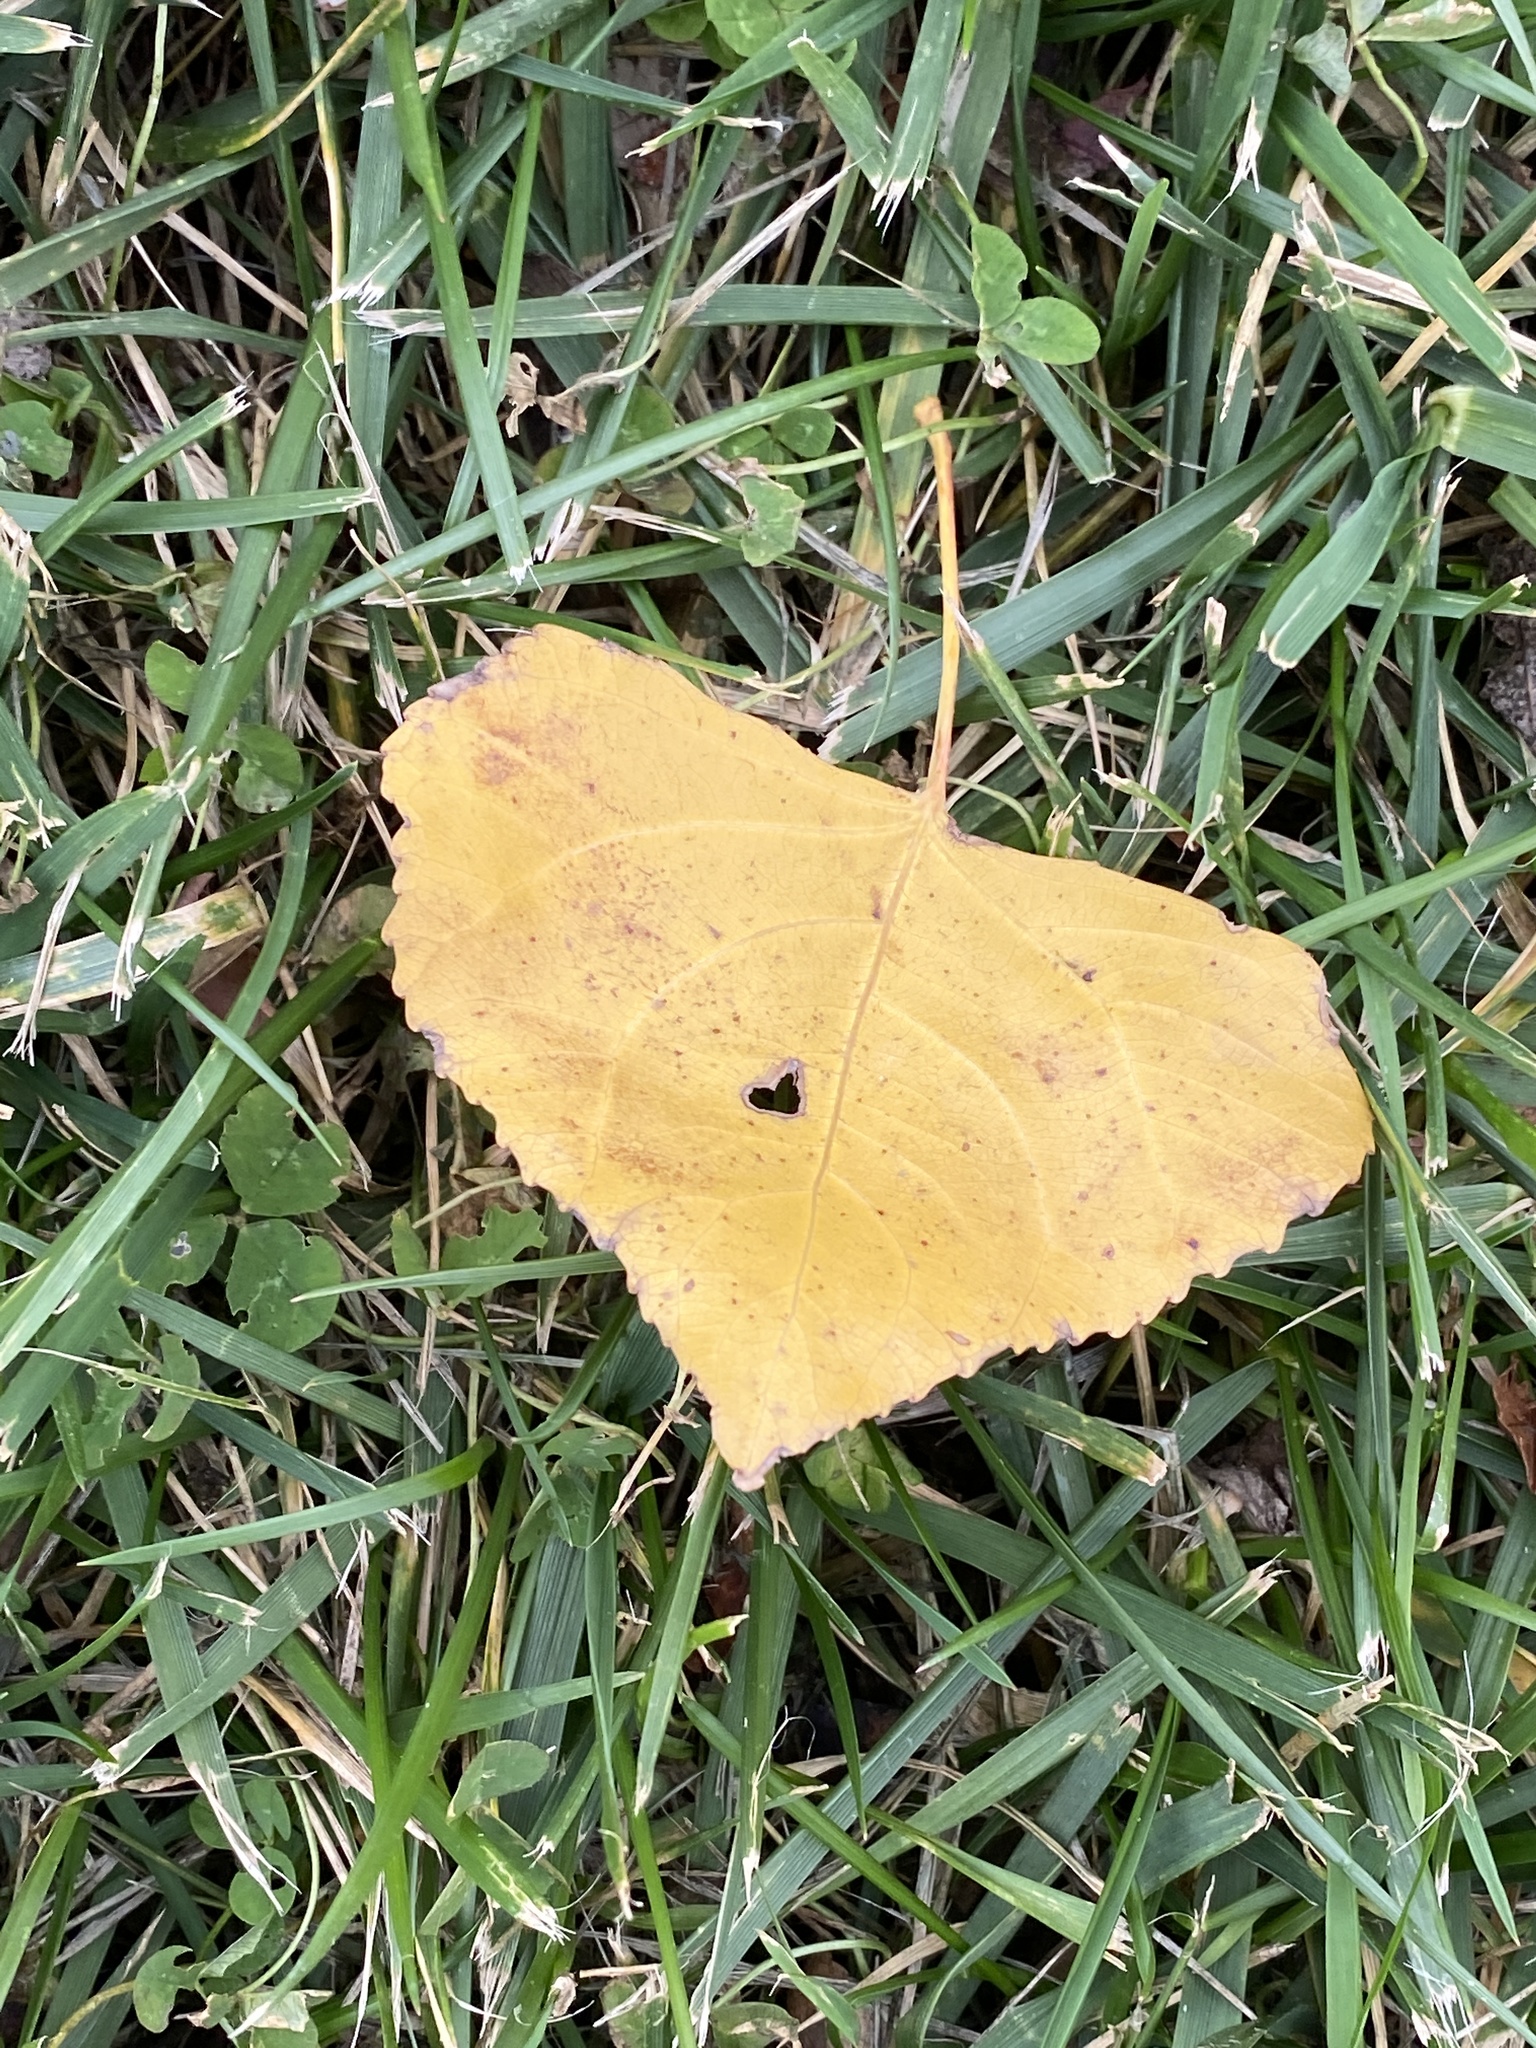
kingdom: Plantae
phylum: Tracheophyta
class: Magnoliopsida
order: Malpighiales
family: Salicaceae
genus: Populus
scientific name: Populus deltoides
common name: Eastern cottonwood
